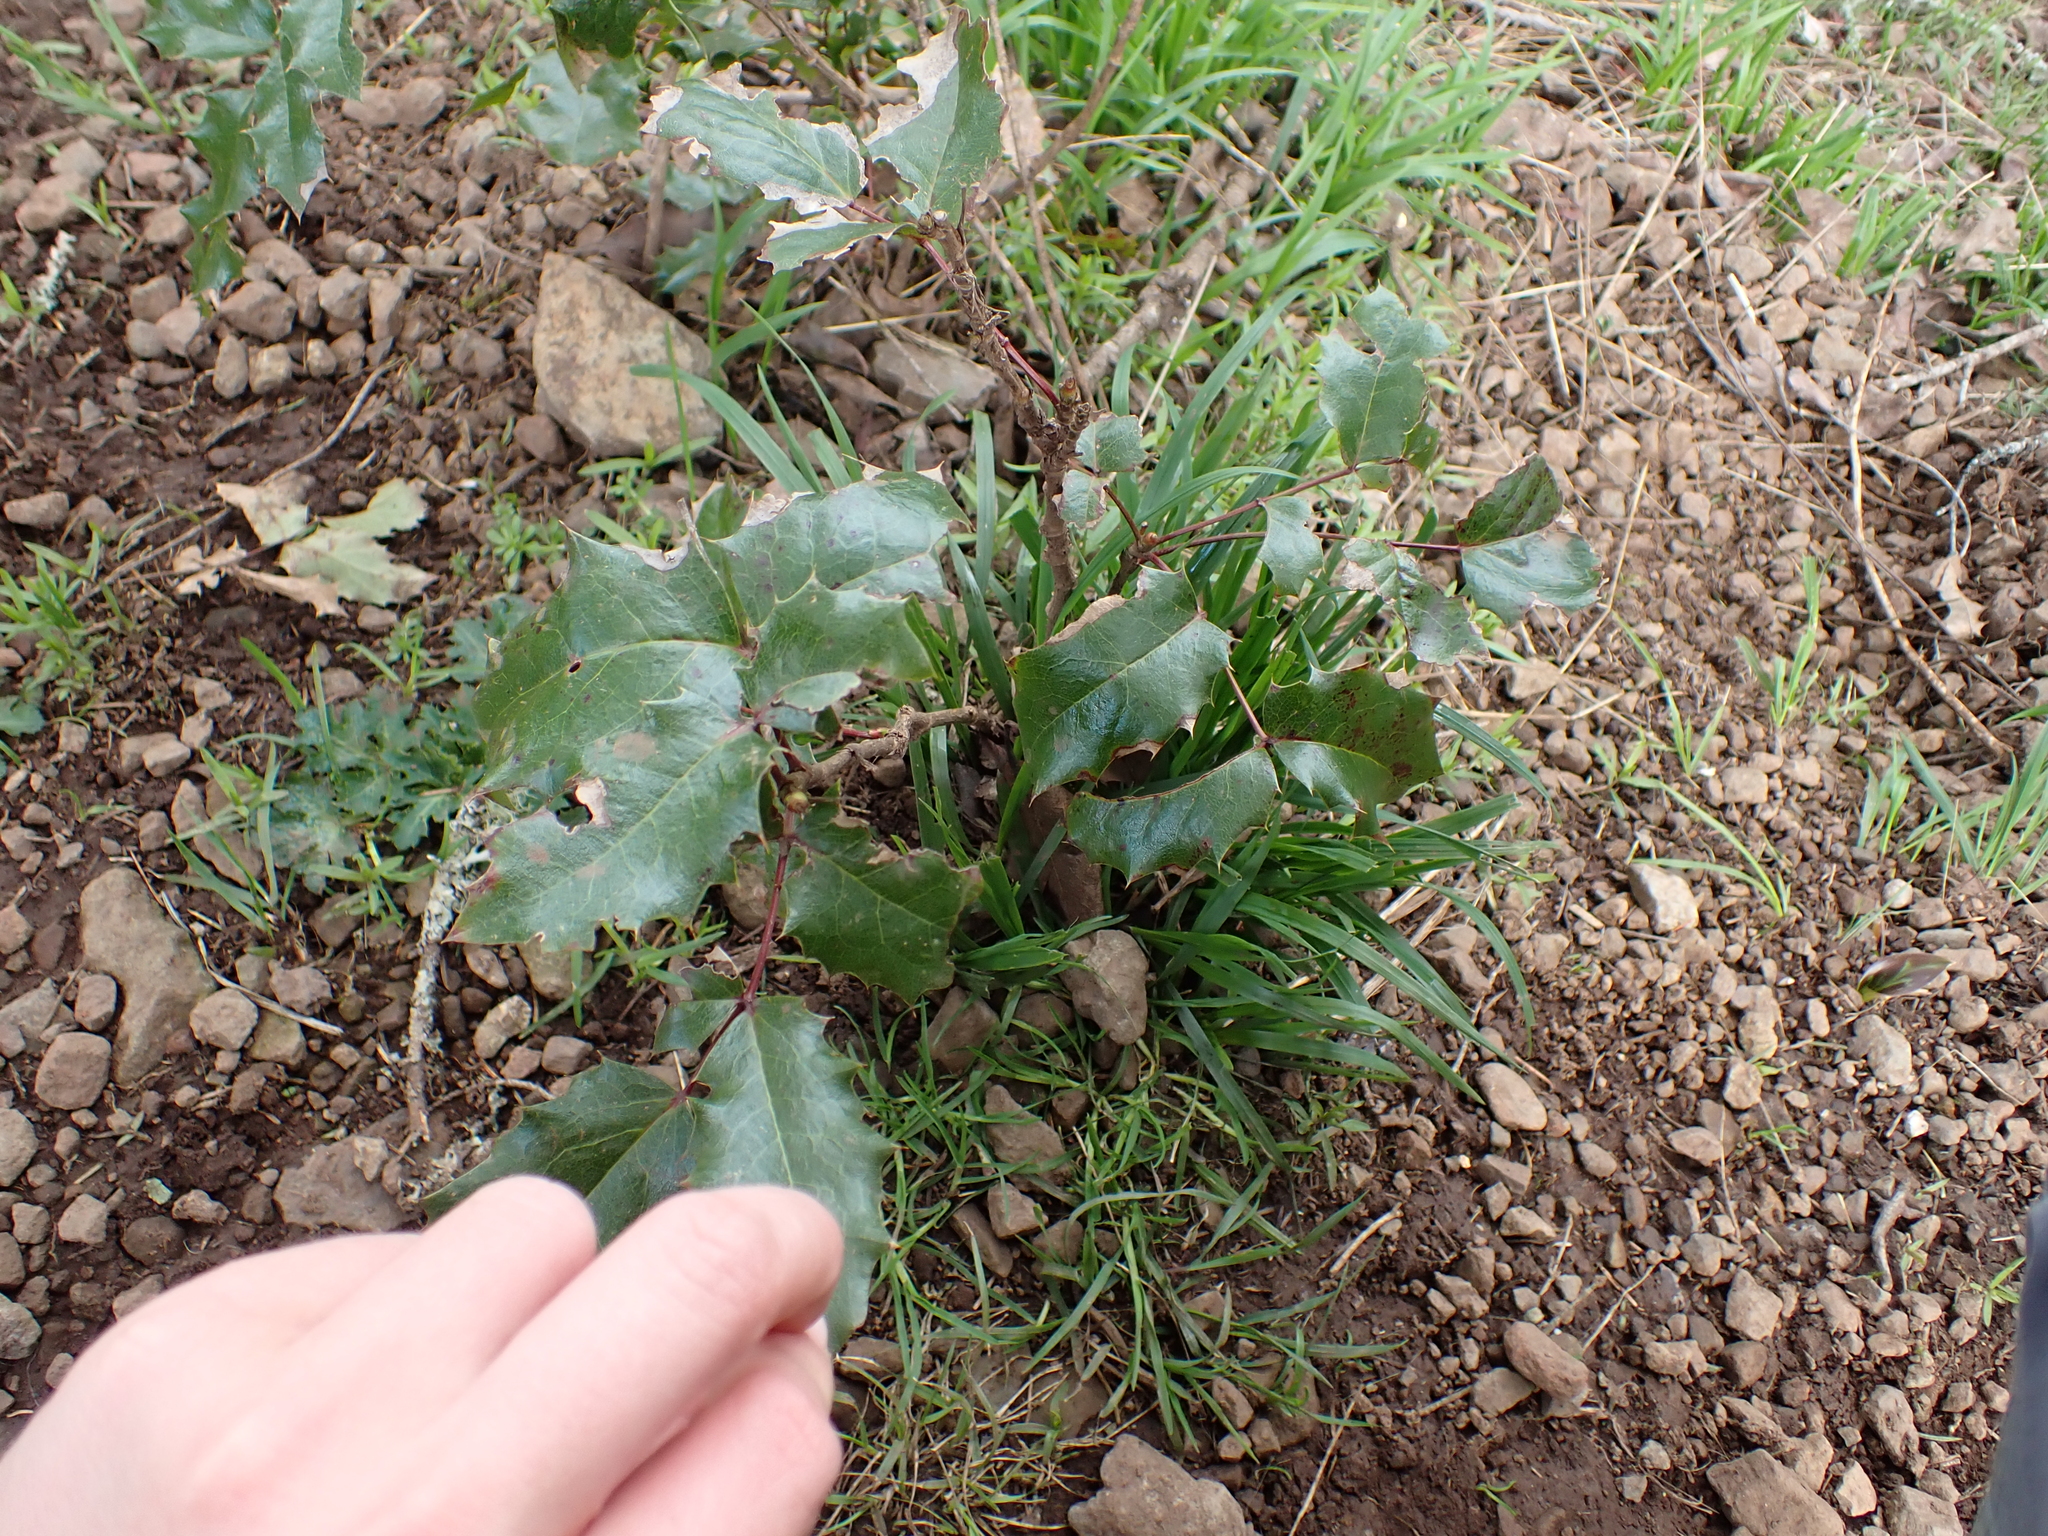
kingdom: Plantae
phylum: Tracheophyta
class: Magnoliopsida
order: Ranunculales
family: Berberidaceae
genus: Mahonia
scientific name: Mahonia aquifolium
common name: Oregon-grape
